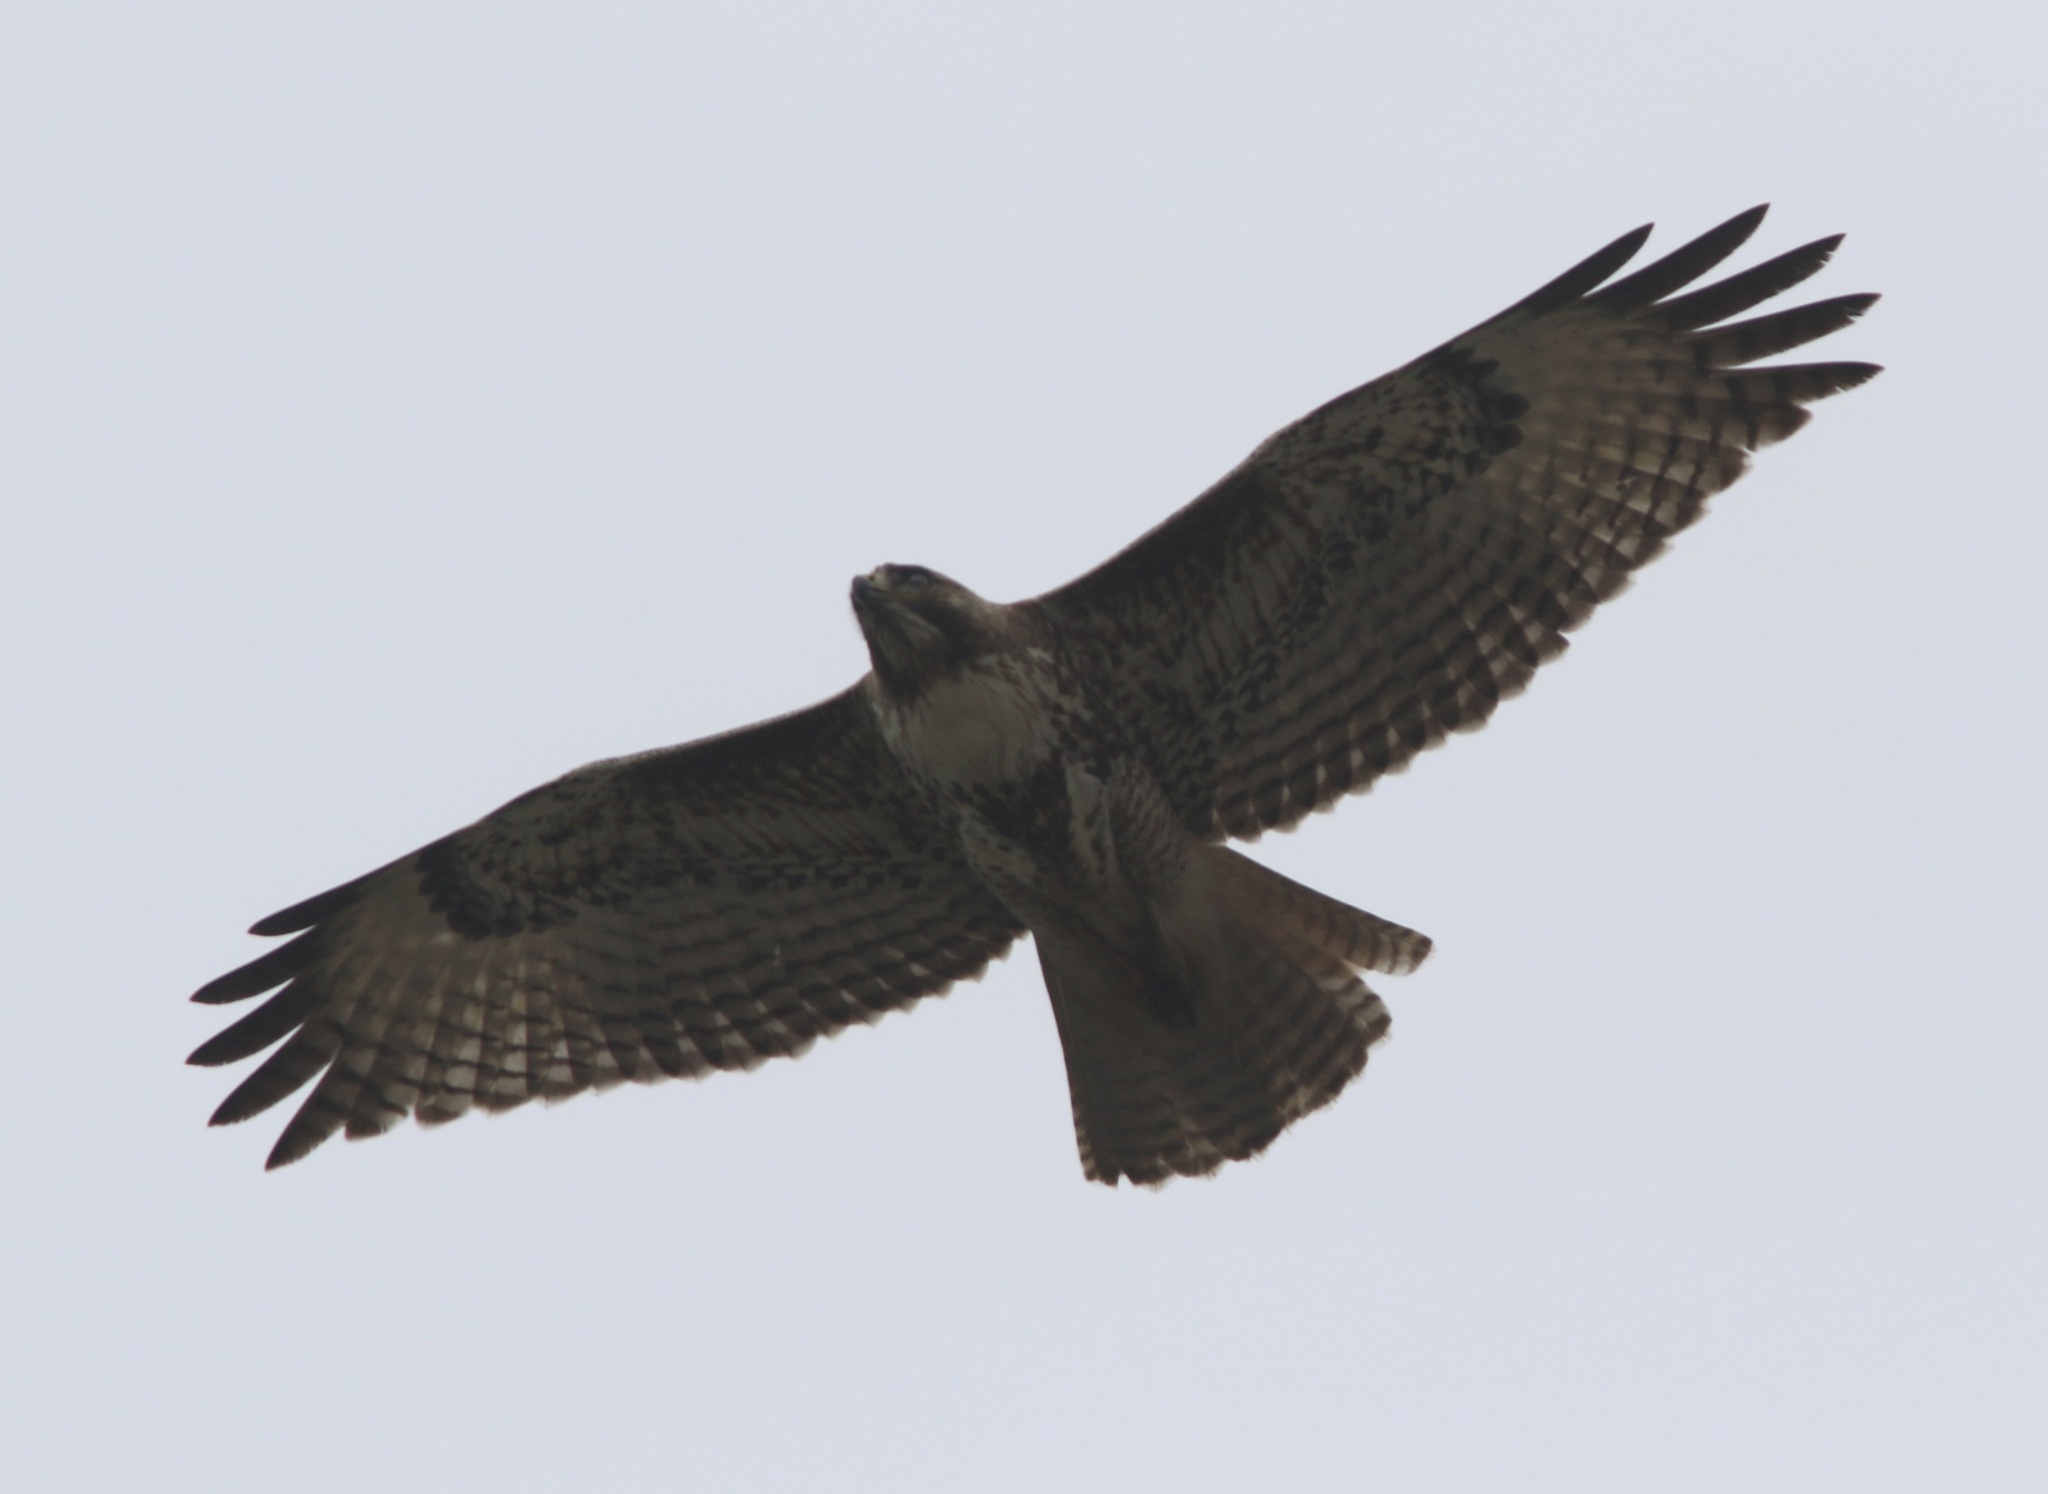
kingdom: Animalia
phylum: Chordata
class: Aves
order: Accipitriformes
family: Accipitridae
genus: Buteo
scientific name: Buteo jamaicensis
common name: Red-tailed hawk
